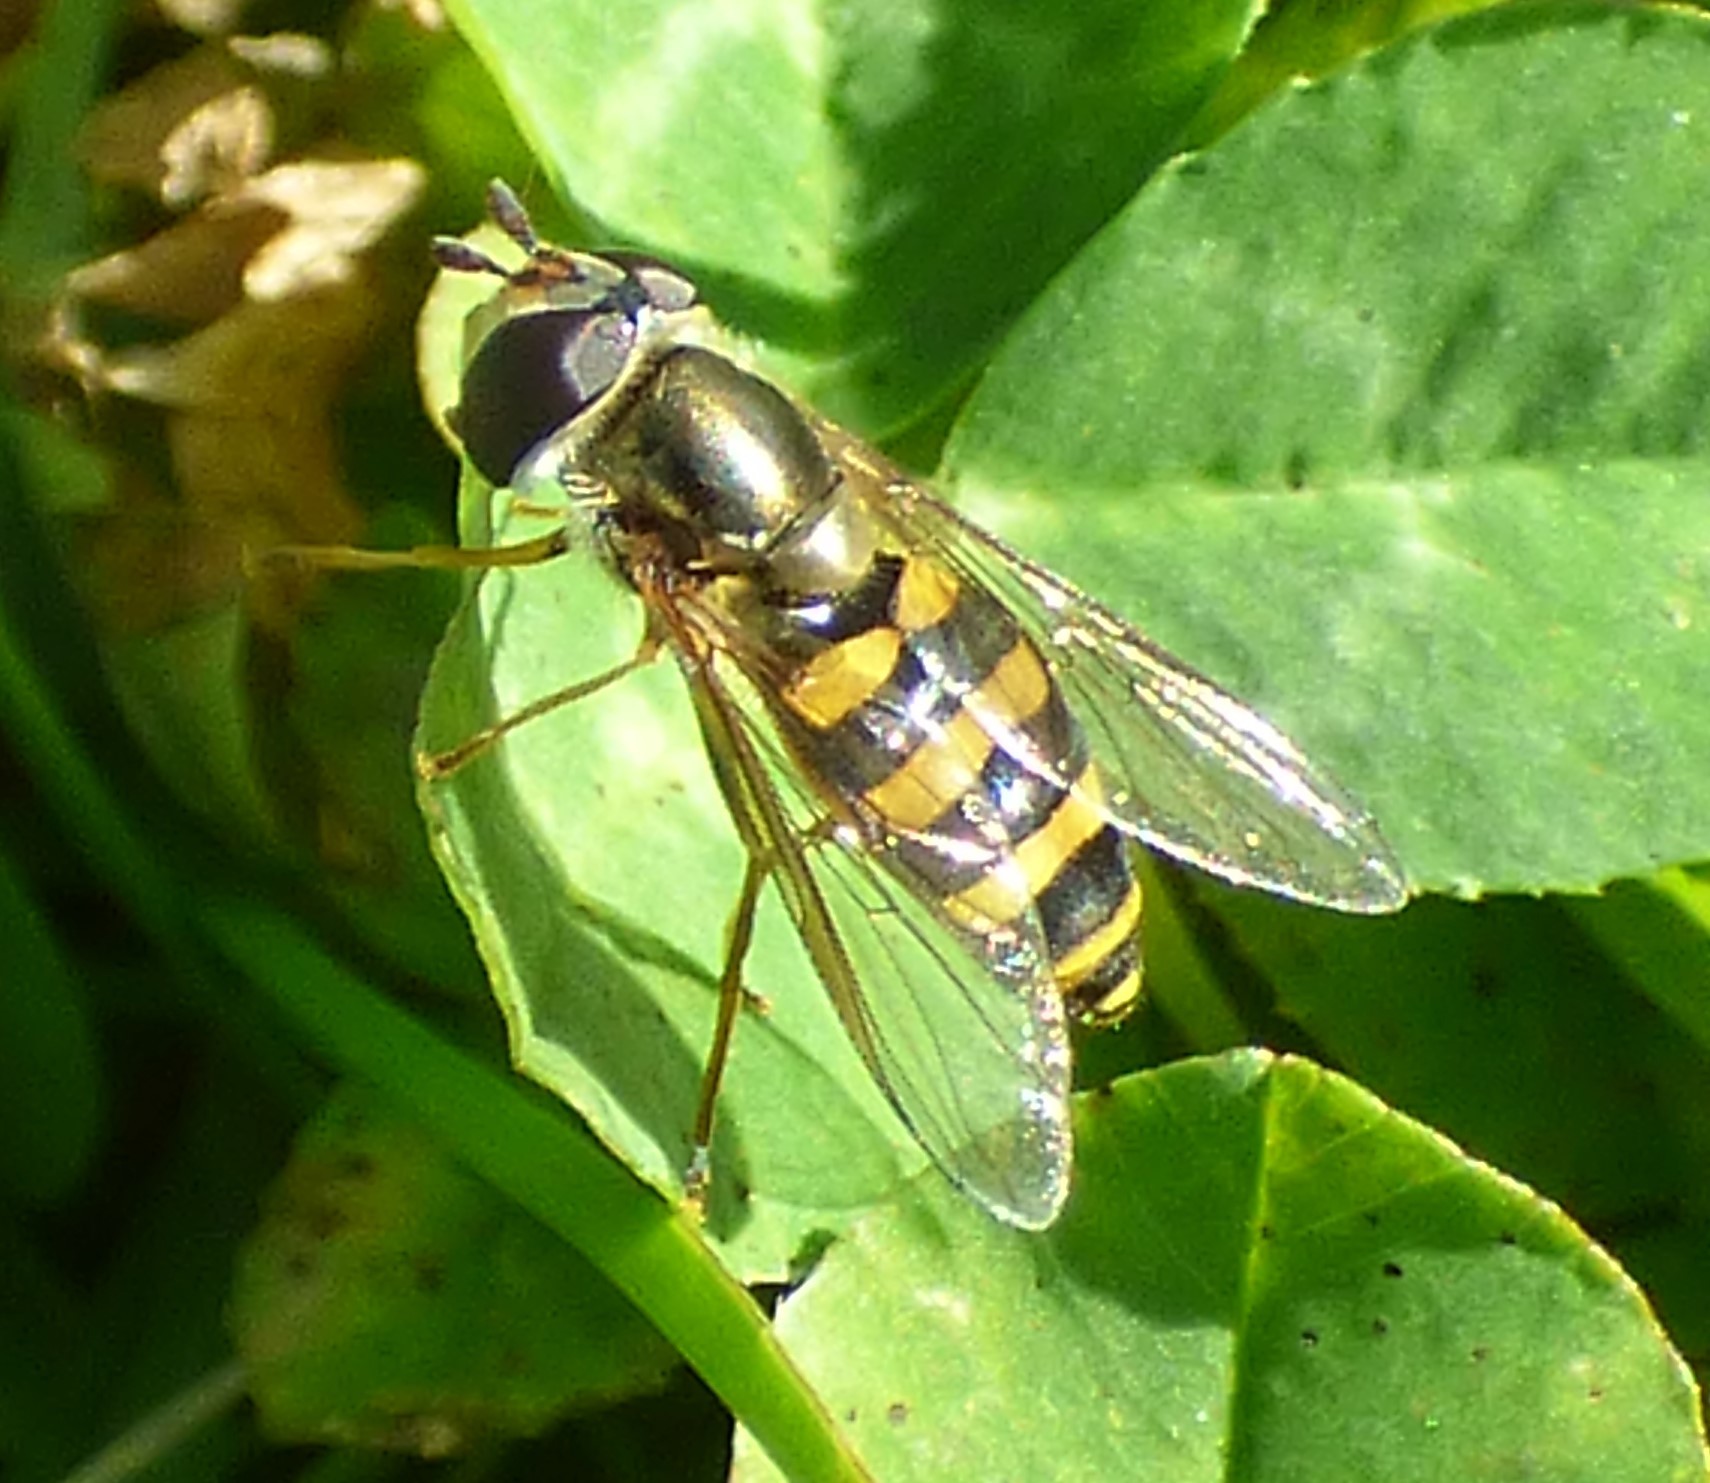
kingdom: Animalia
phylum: Arthropoda
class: Insecta
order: Diptera
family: Syrphidae
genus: Eupeodes
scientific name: Eupeodes
